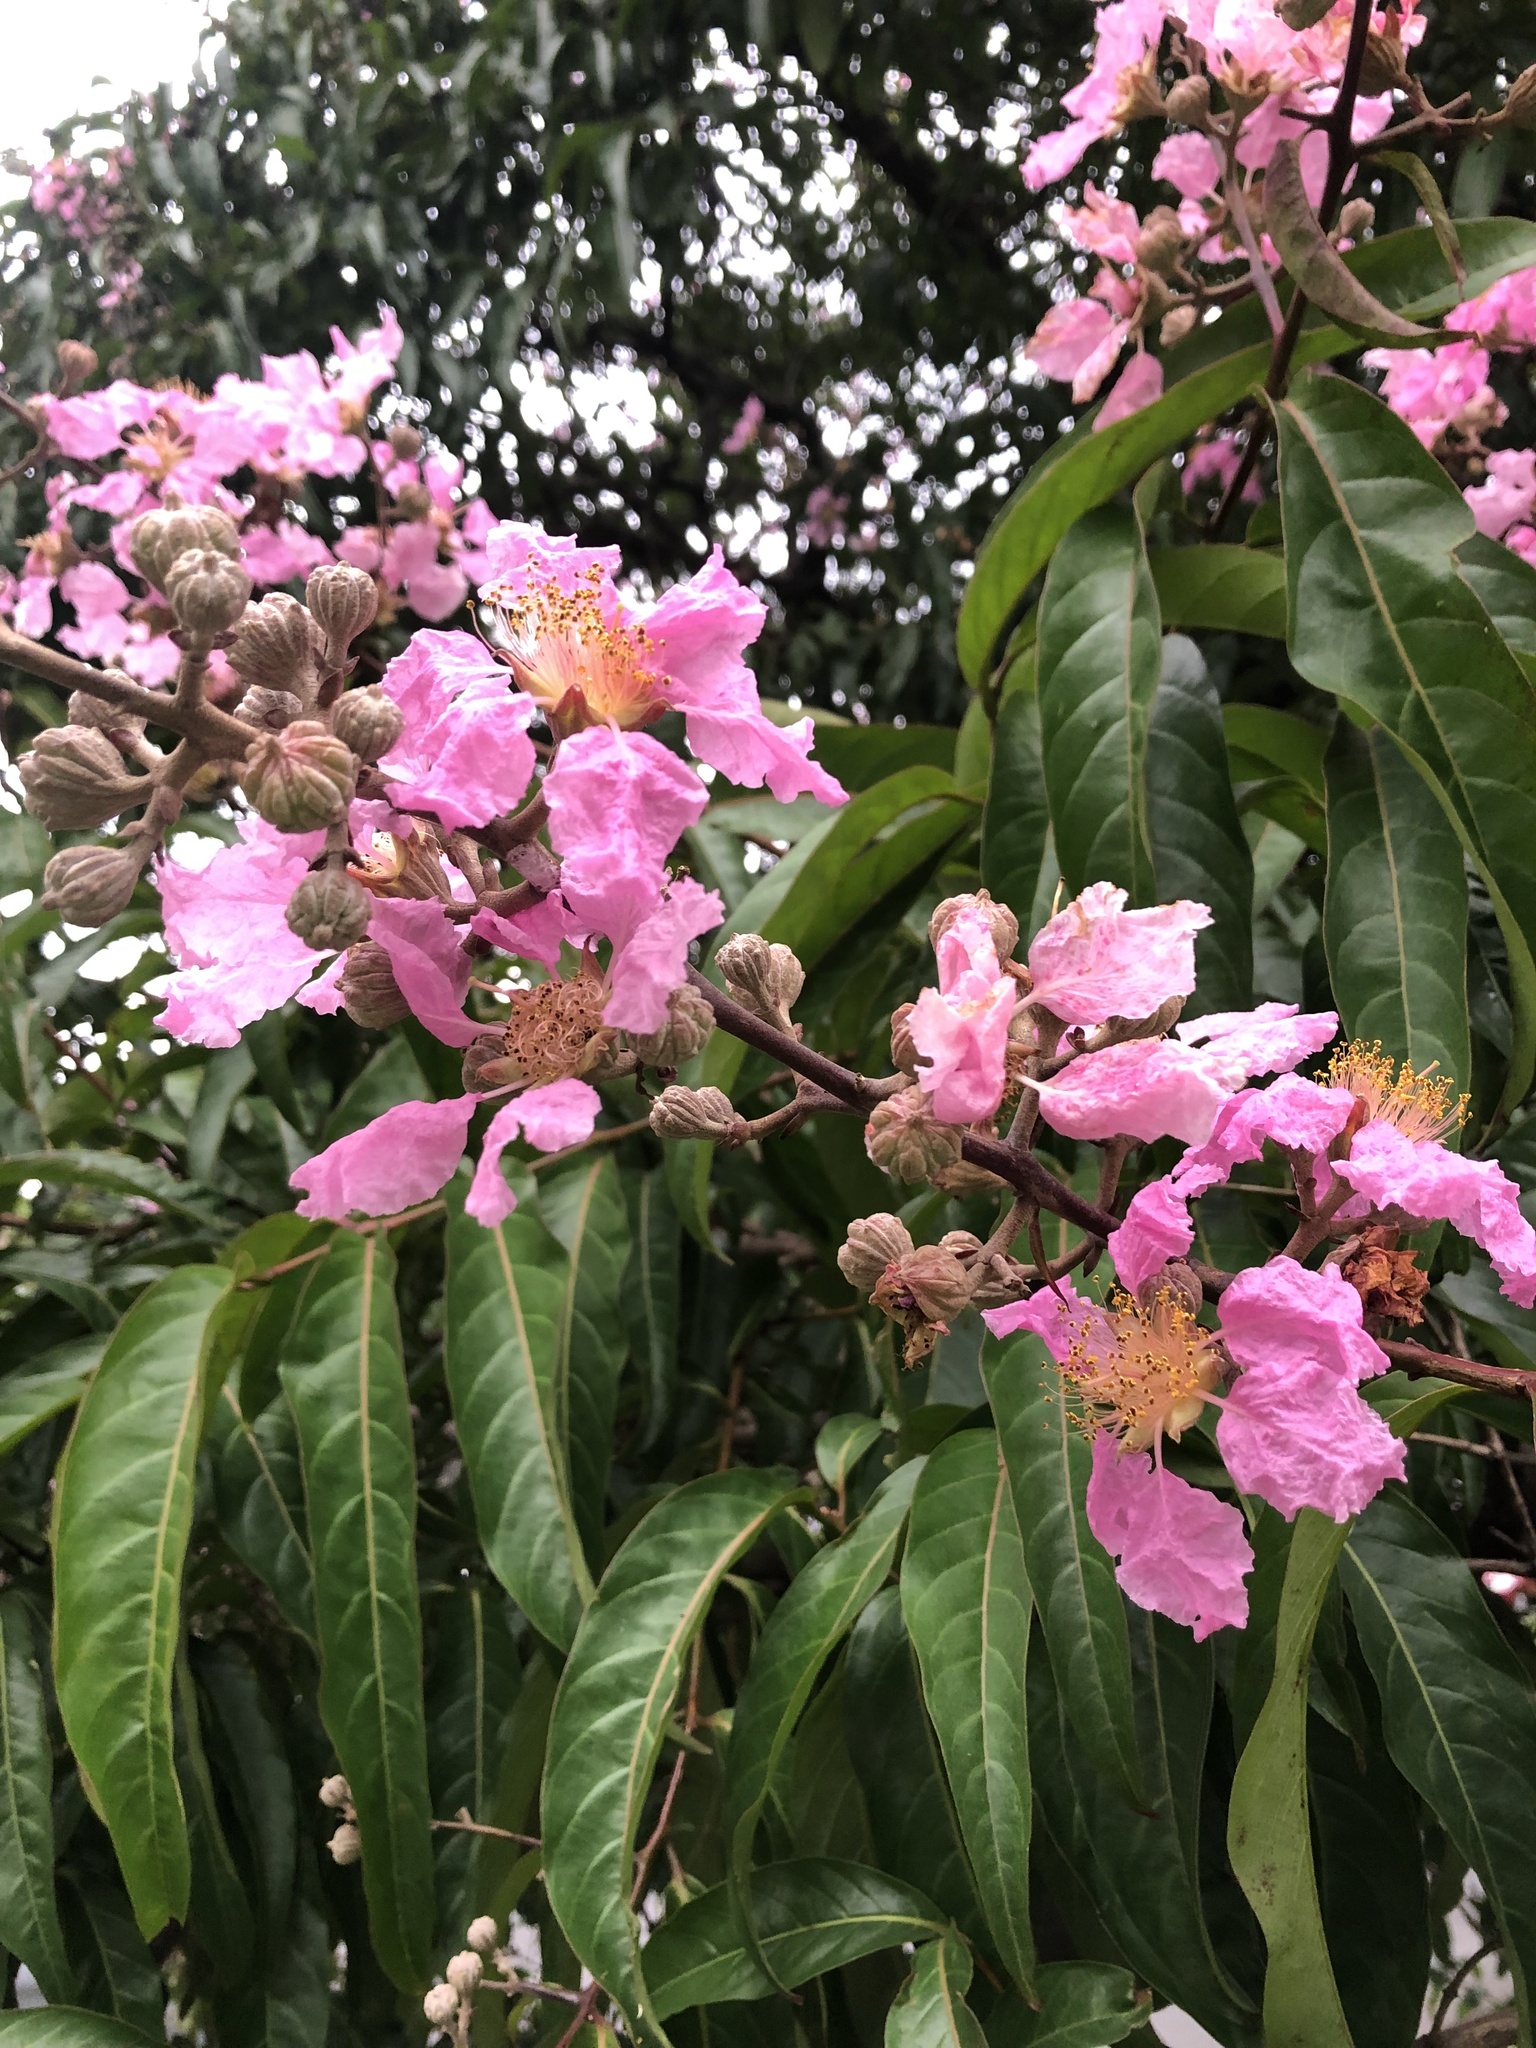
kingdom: Plantae
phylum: Tracheophyta
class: Magnoliopsida
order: Myrtales
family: Lythraceae
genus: Lagerstroemia
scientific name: Lagerstroemia speciosa
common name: Queen's crape-myrtle
